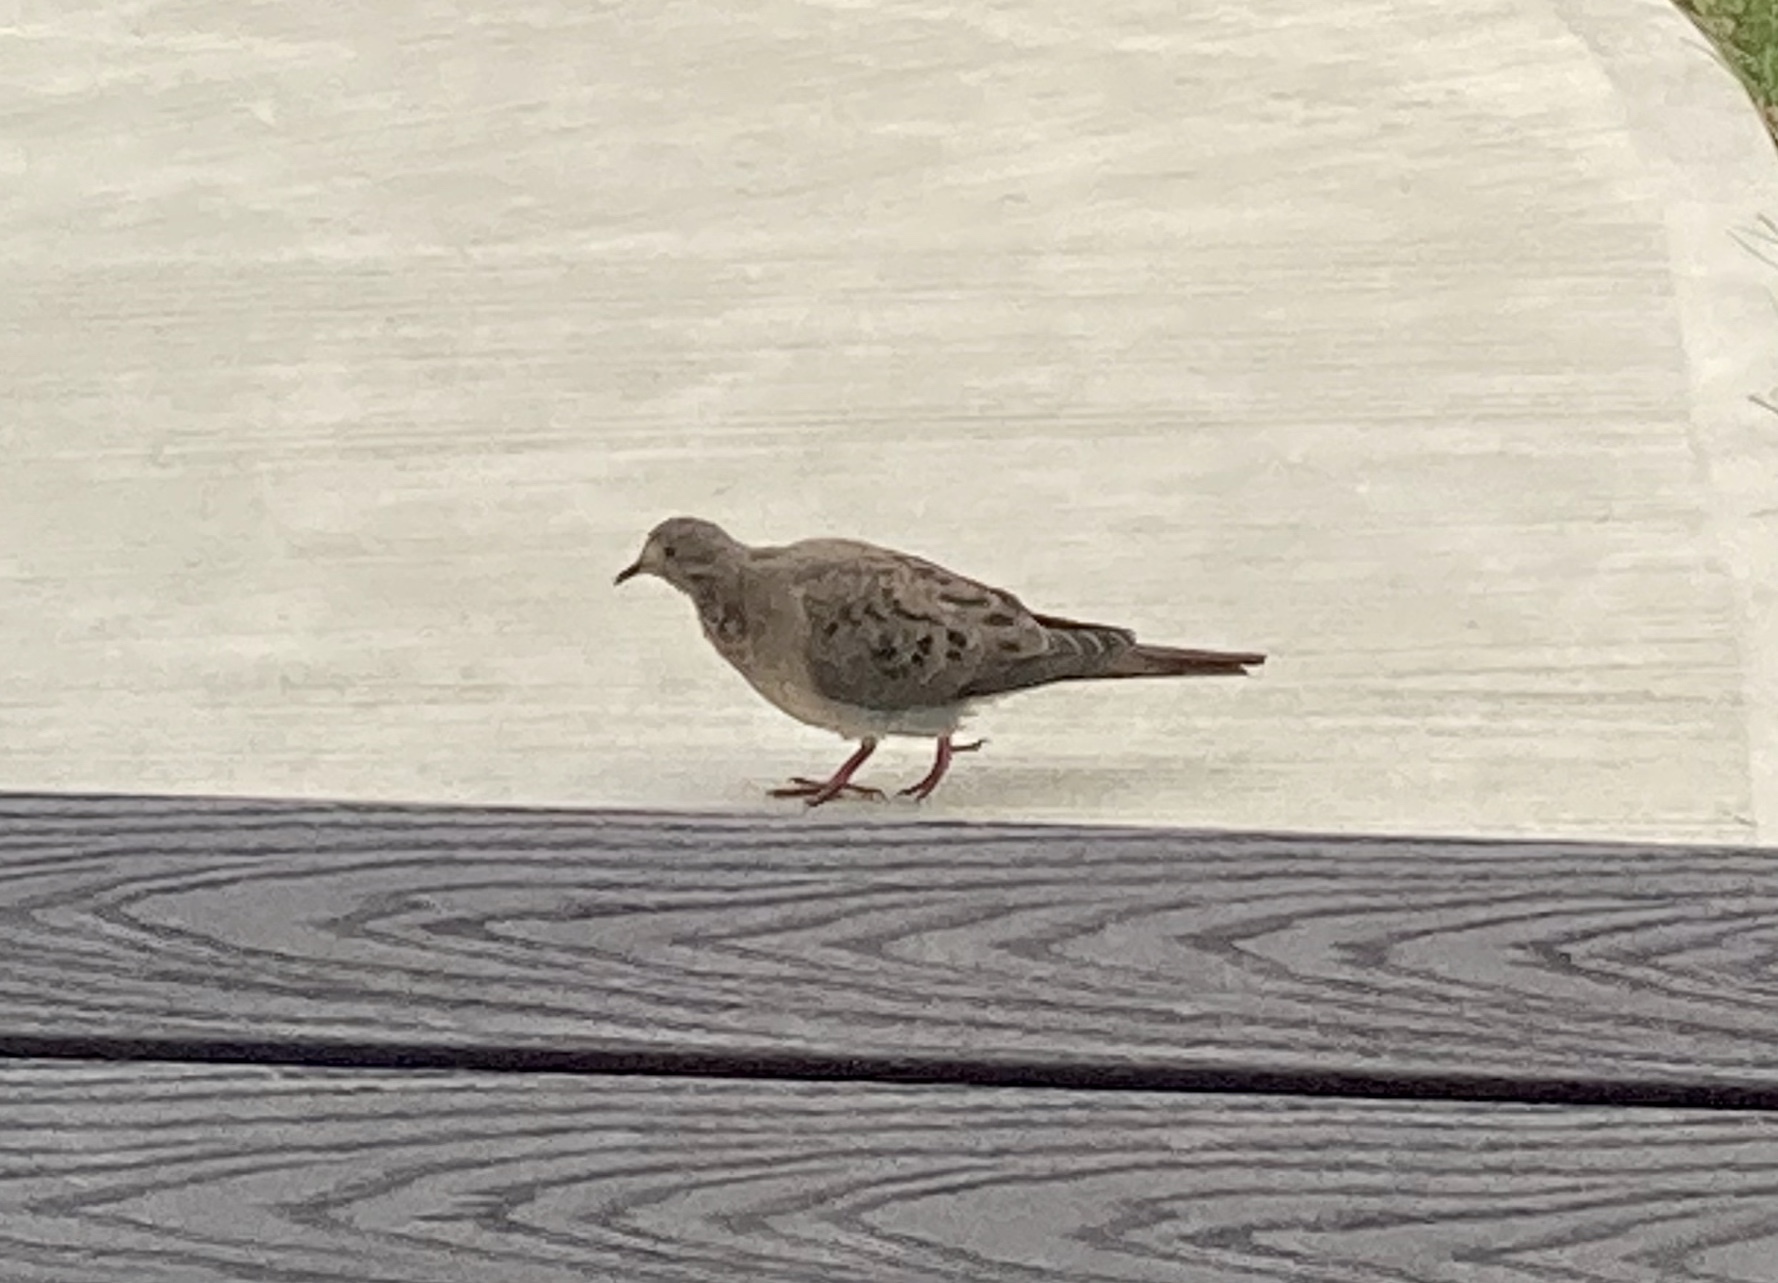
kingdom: Animalia
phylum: Chordata
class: Aves
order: Columbiformes
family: Columbidae
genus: Zenaida
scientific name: Zenaida macroura
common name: Mourning dove
